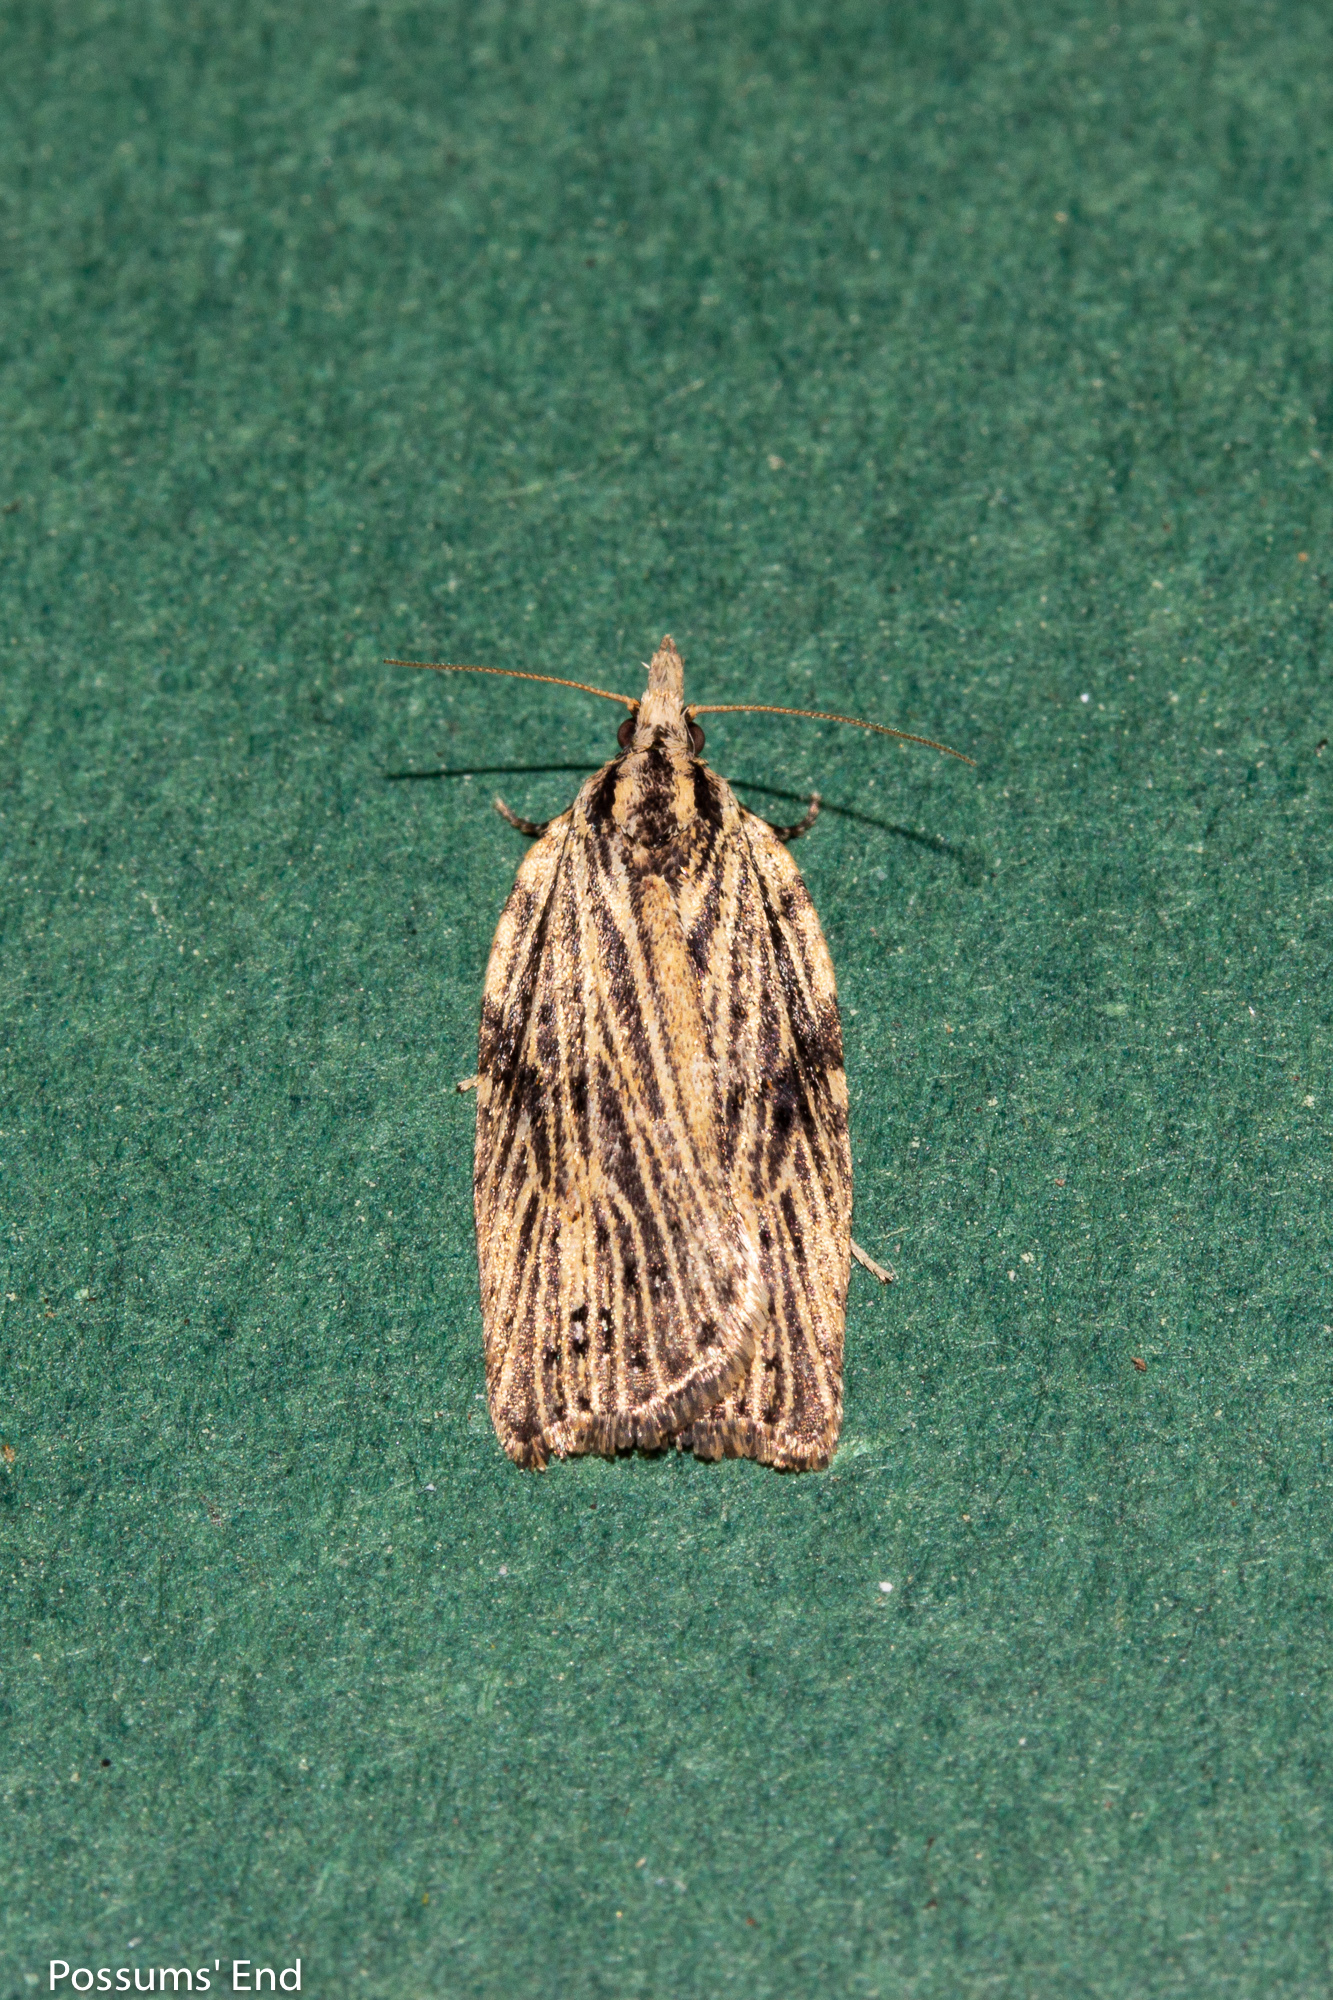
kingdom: Animalia
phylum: Arthropoda
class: Insecta
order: Lepidoptera
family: Tortricidae
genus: Planotortrix
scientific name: Planotortrix notophaea
